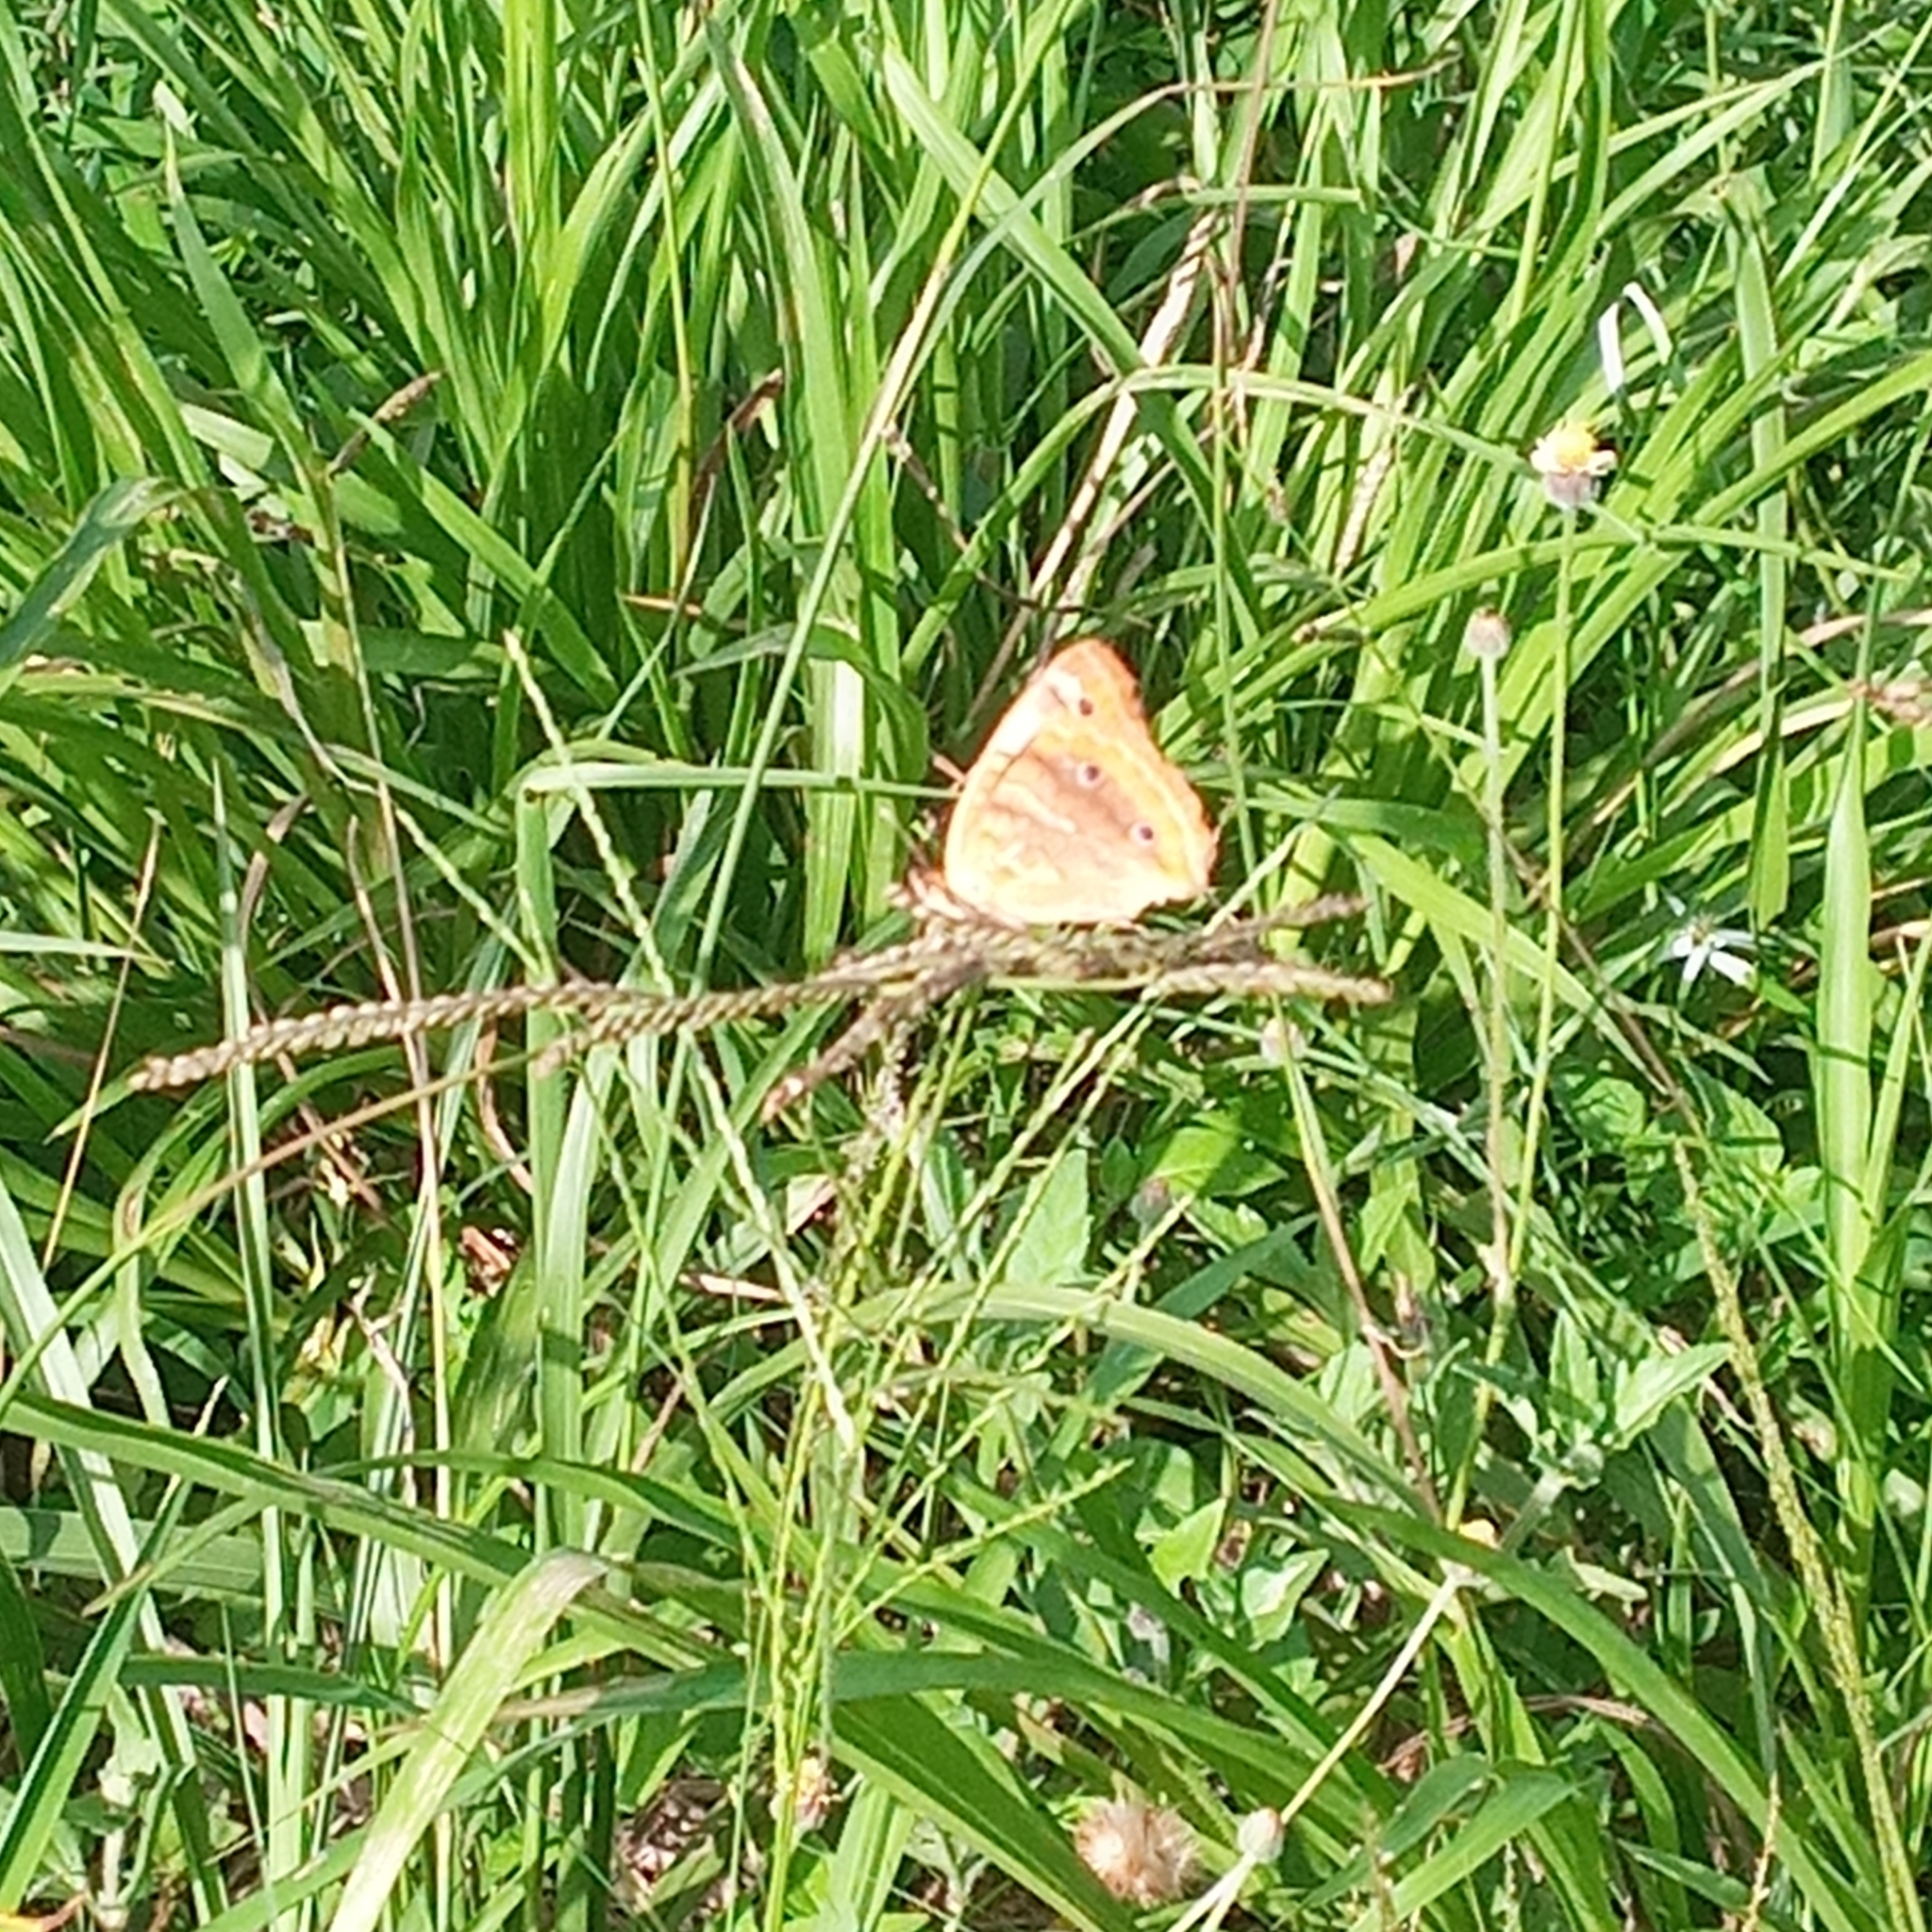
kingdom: Animalia
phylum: Arthropoda
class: Insecta
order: Lepidoptera
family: Nymphalidae
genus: Anartia
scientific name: Anartia jatrophae
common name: White peacock
